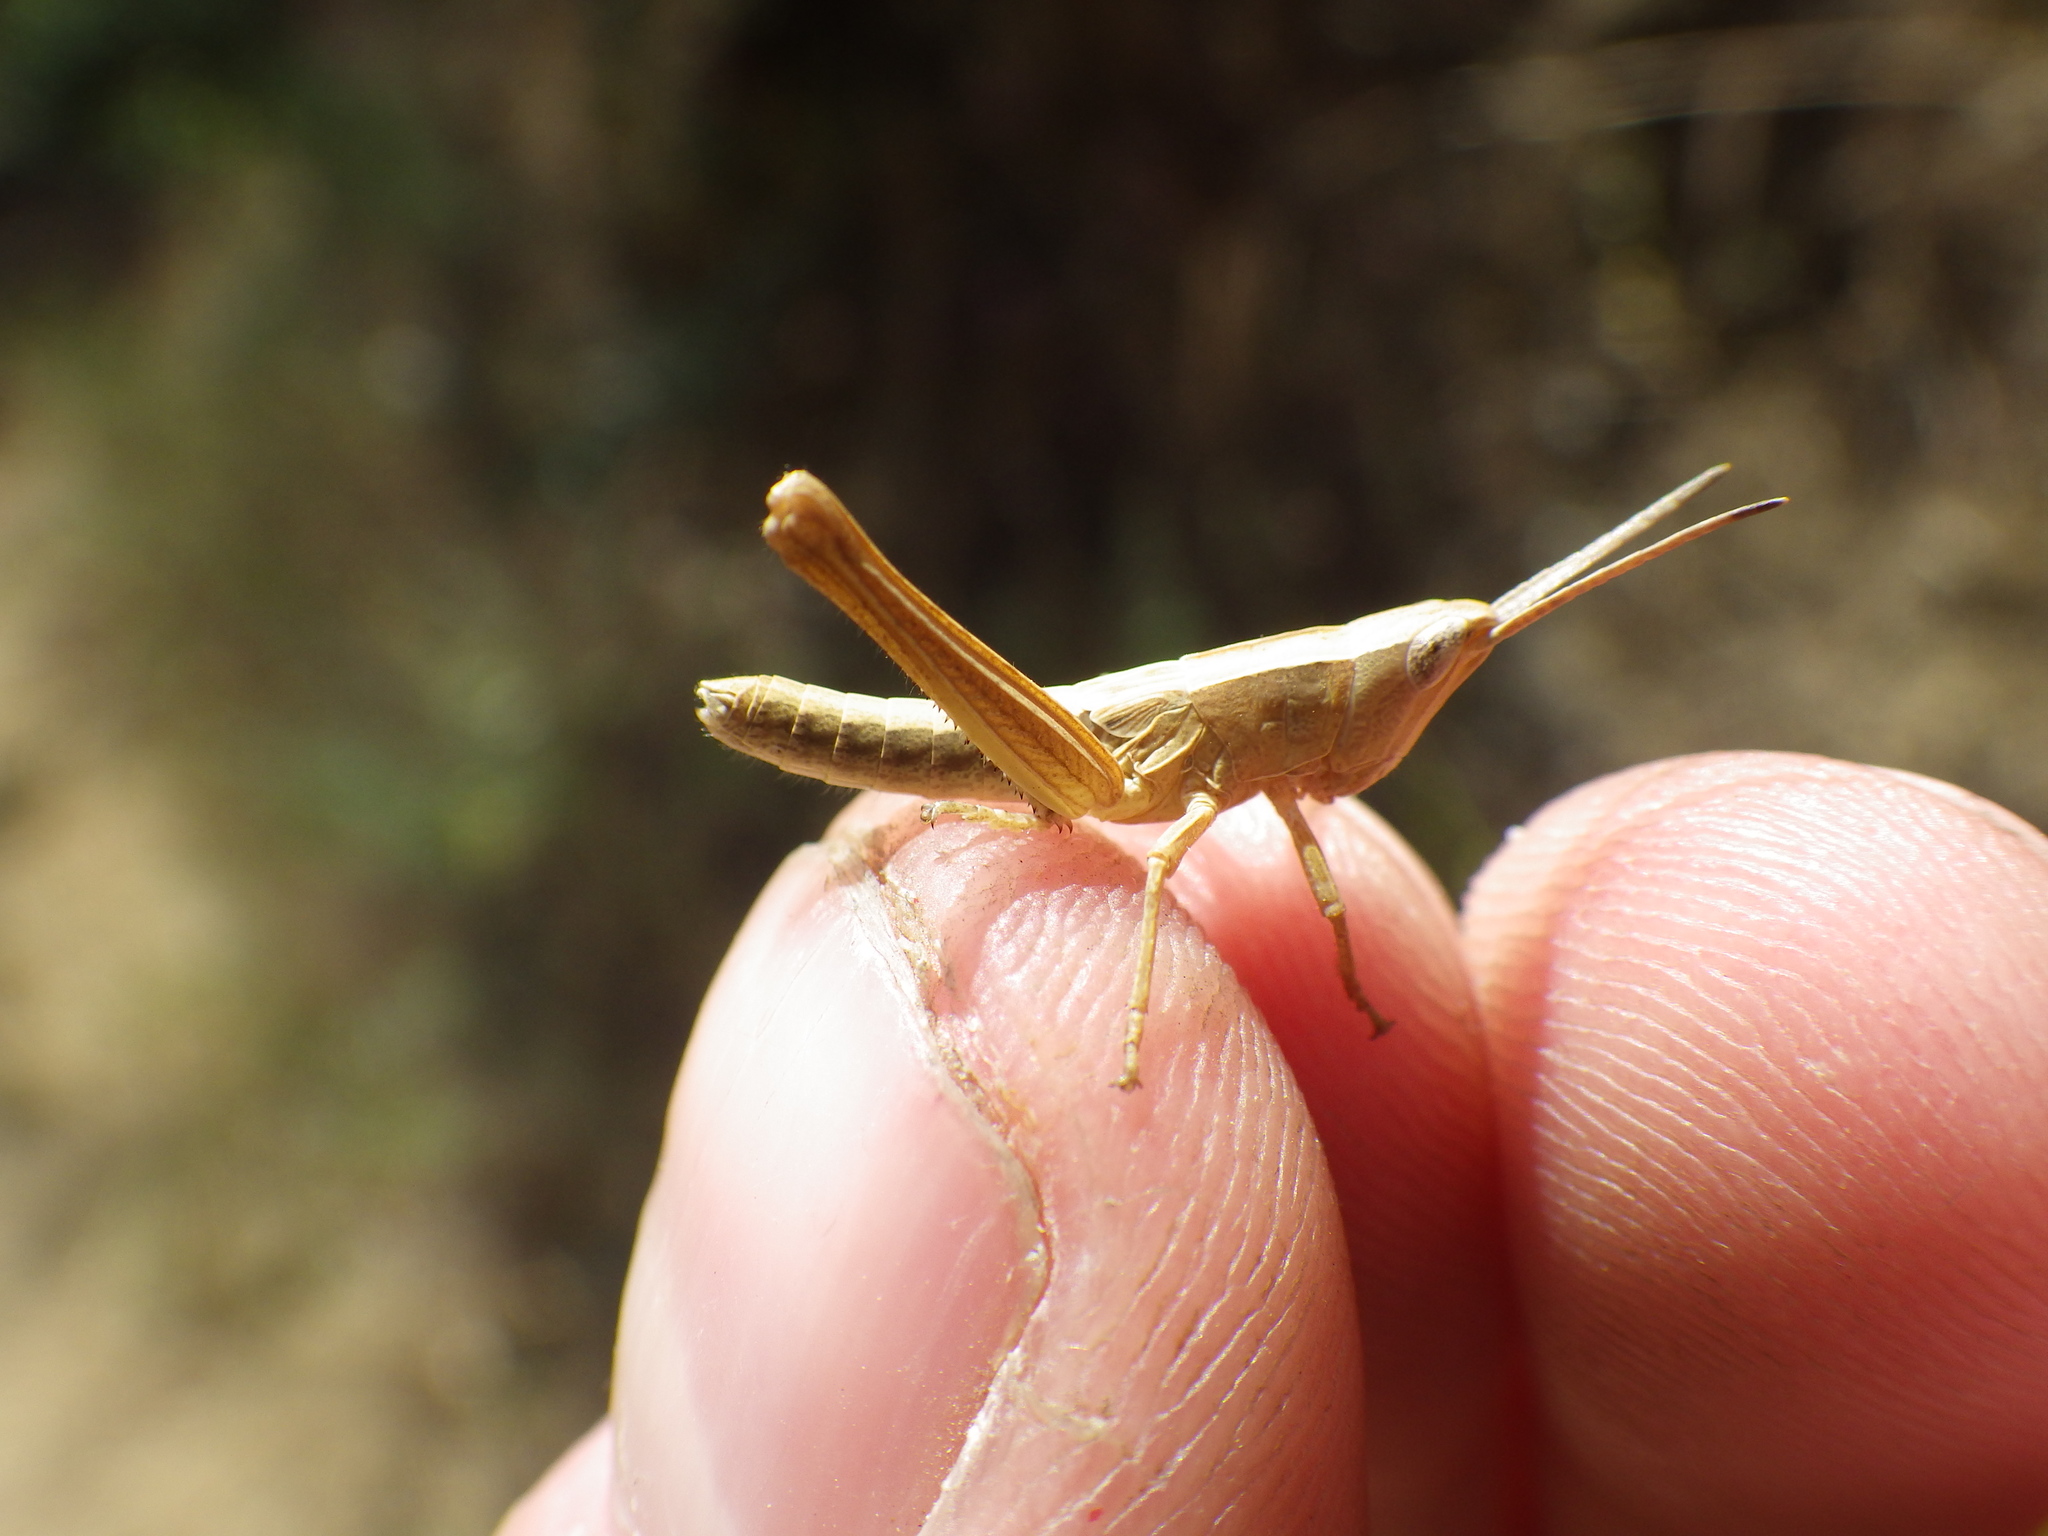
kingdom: Animalia
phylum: Arthropoda
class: Insecta
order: Orthoptera
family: Acrididae
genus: Chloealtis
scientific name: Chloealtis gracilis
